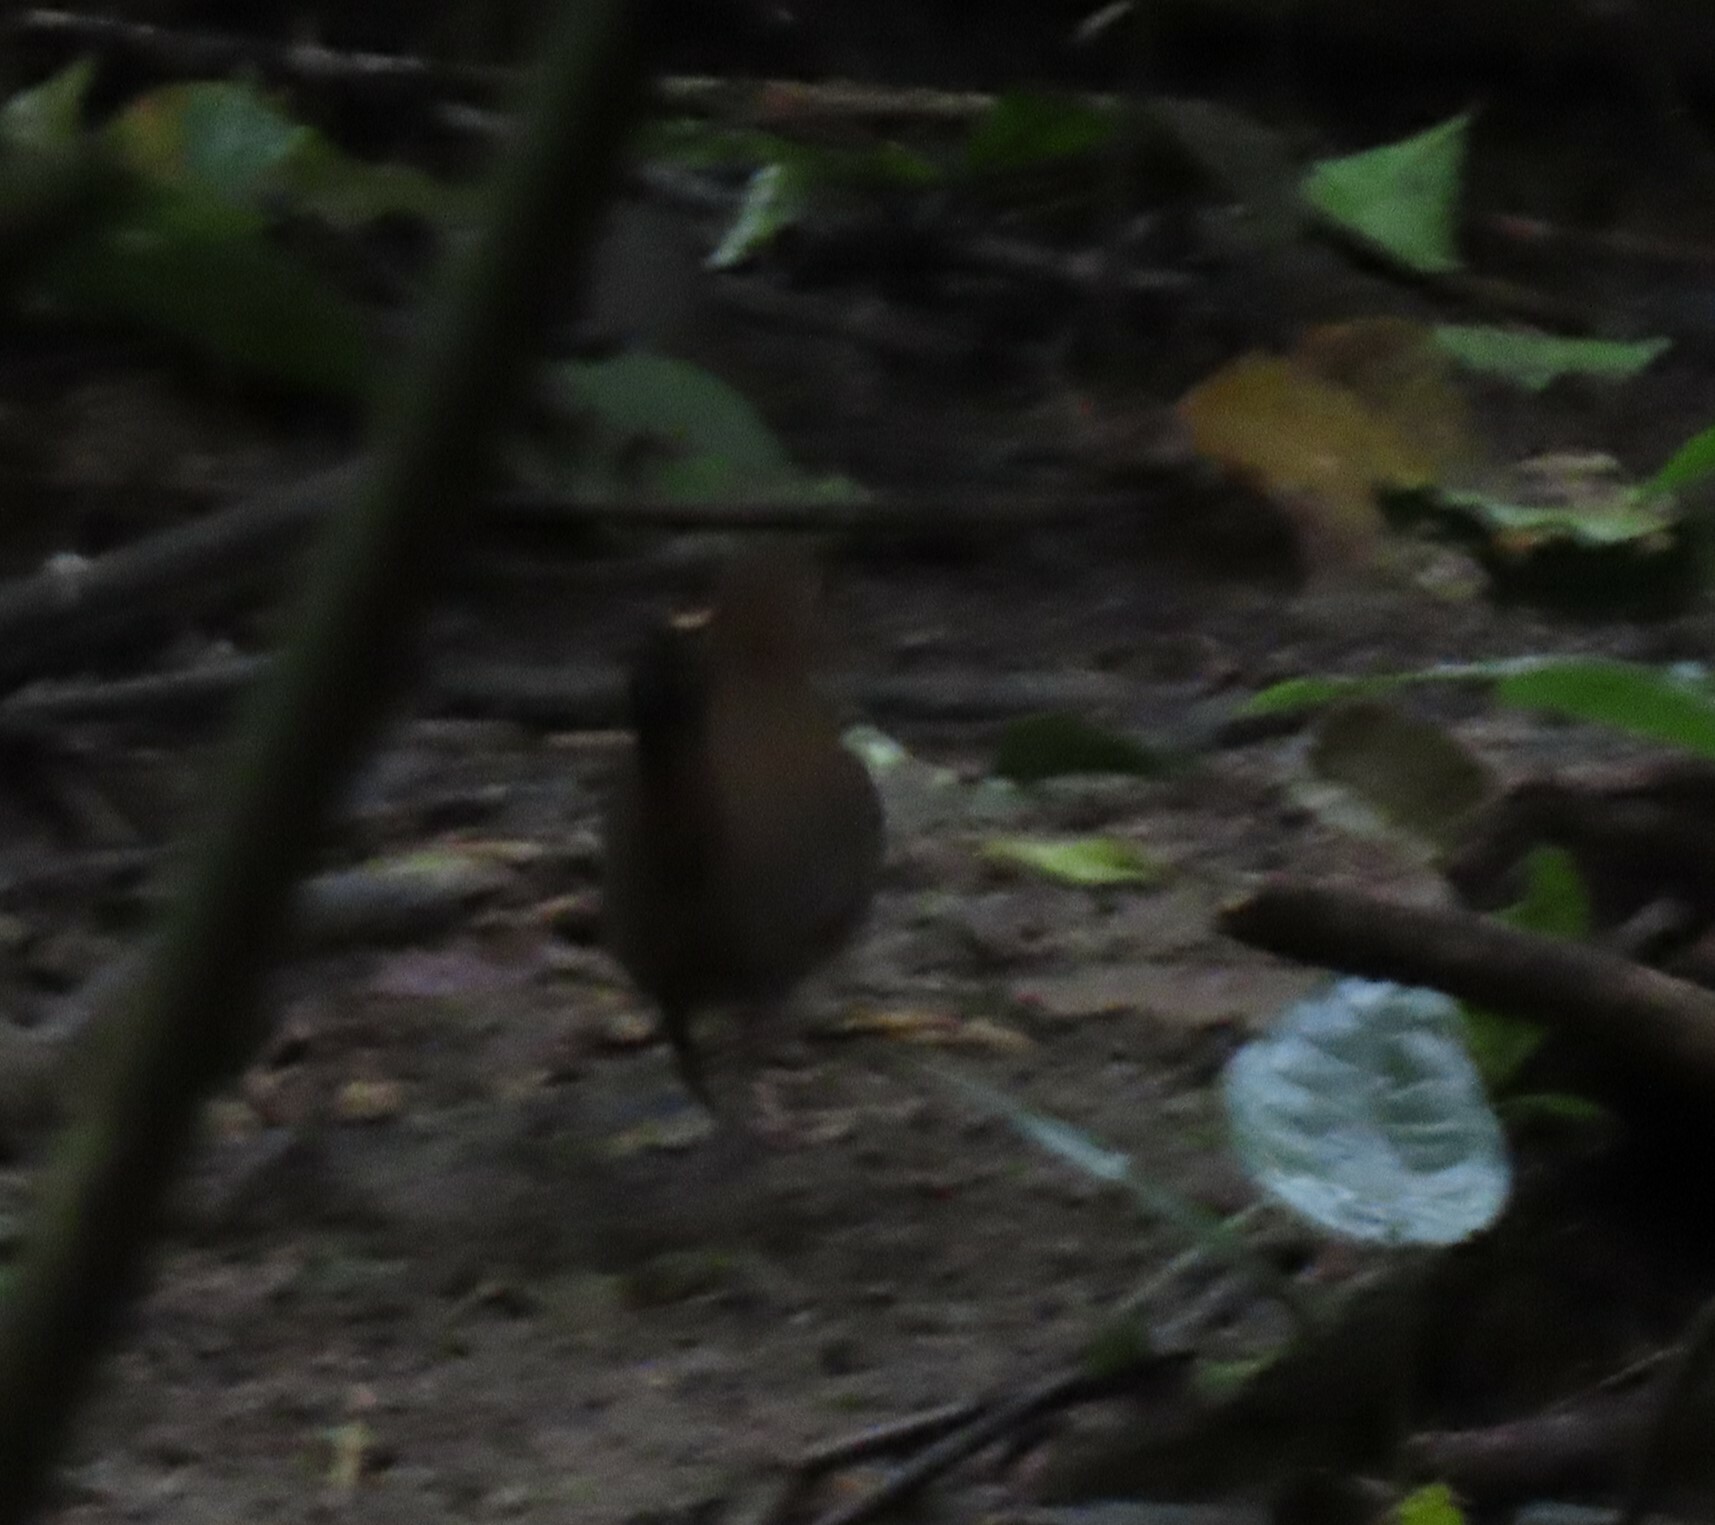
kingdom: Animalia
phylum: Chordata
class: Aves
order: Passeriformes
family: Formicariidae
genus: Formicarius
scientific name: Formicarius analis
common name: Black-faced antthrush
